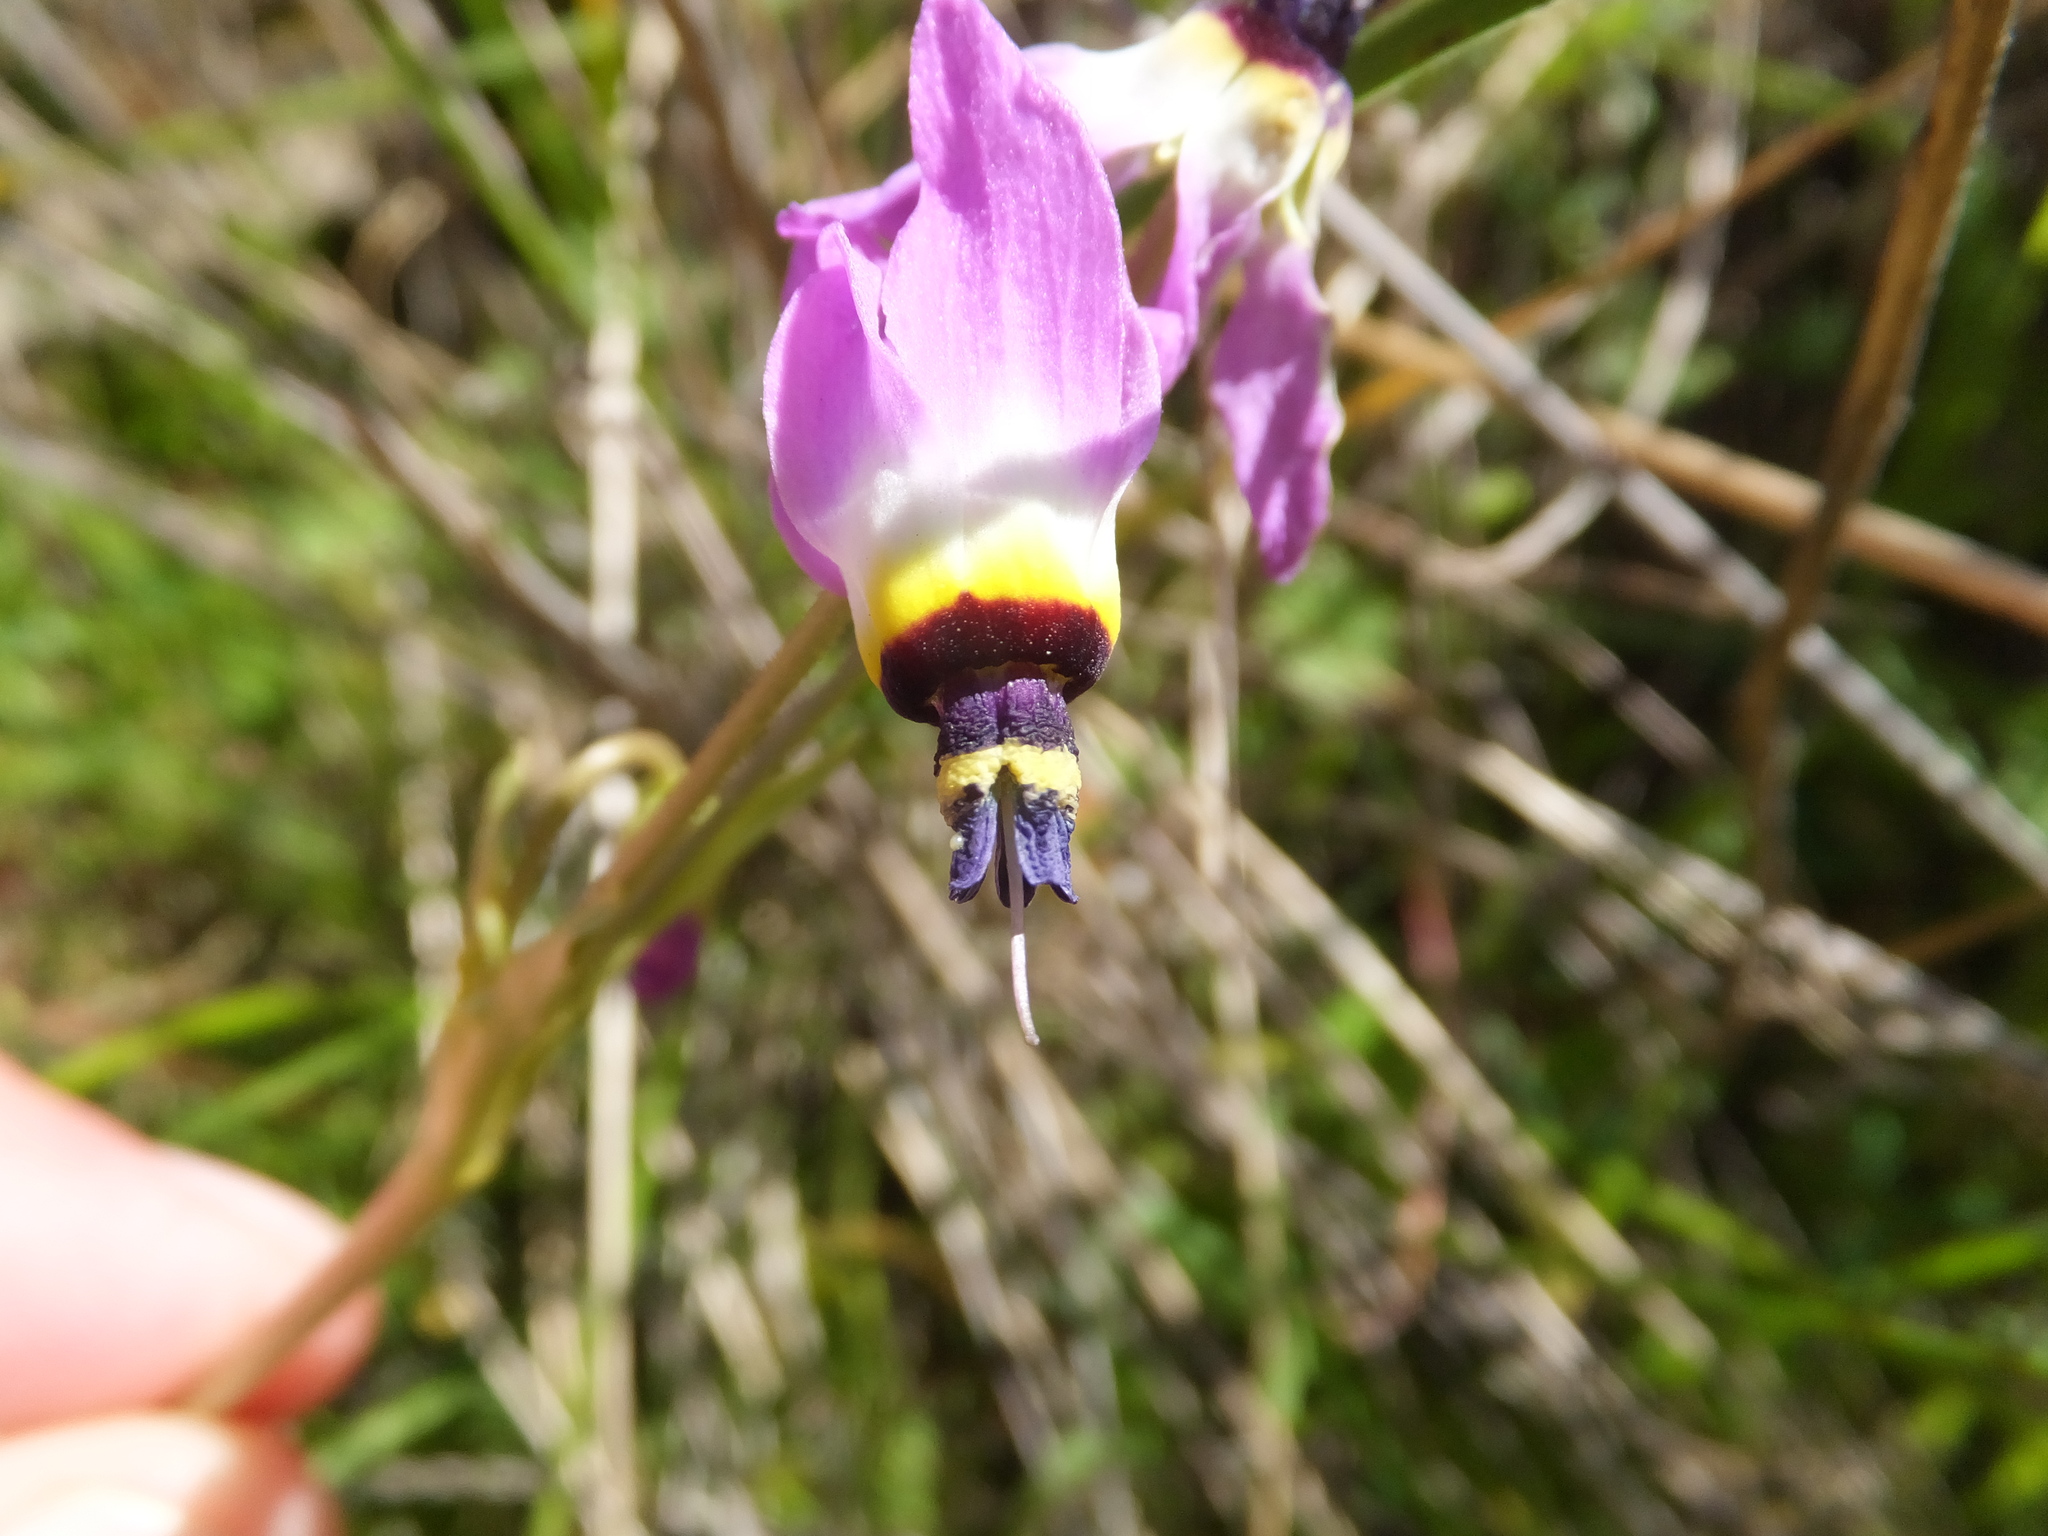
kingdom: Plantae
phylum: Tracheophyta
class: Magnoliopsida
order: Ericales
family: Primulaceae
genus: Dodecatheon
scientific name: Dodecatheon clevelandii
